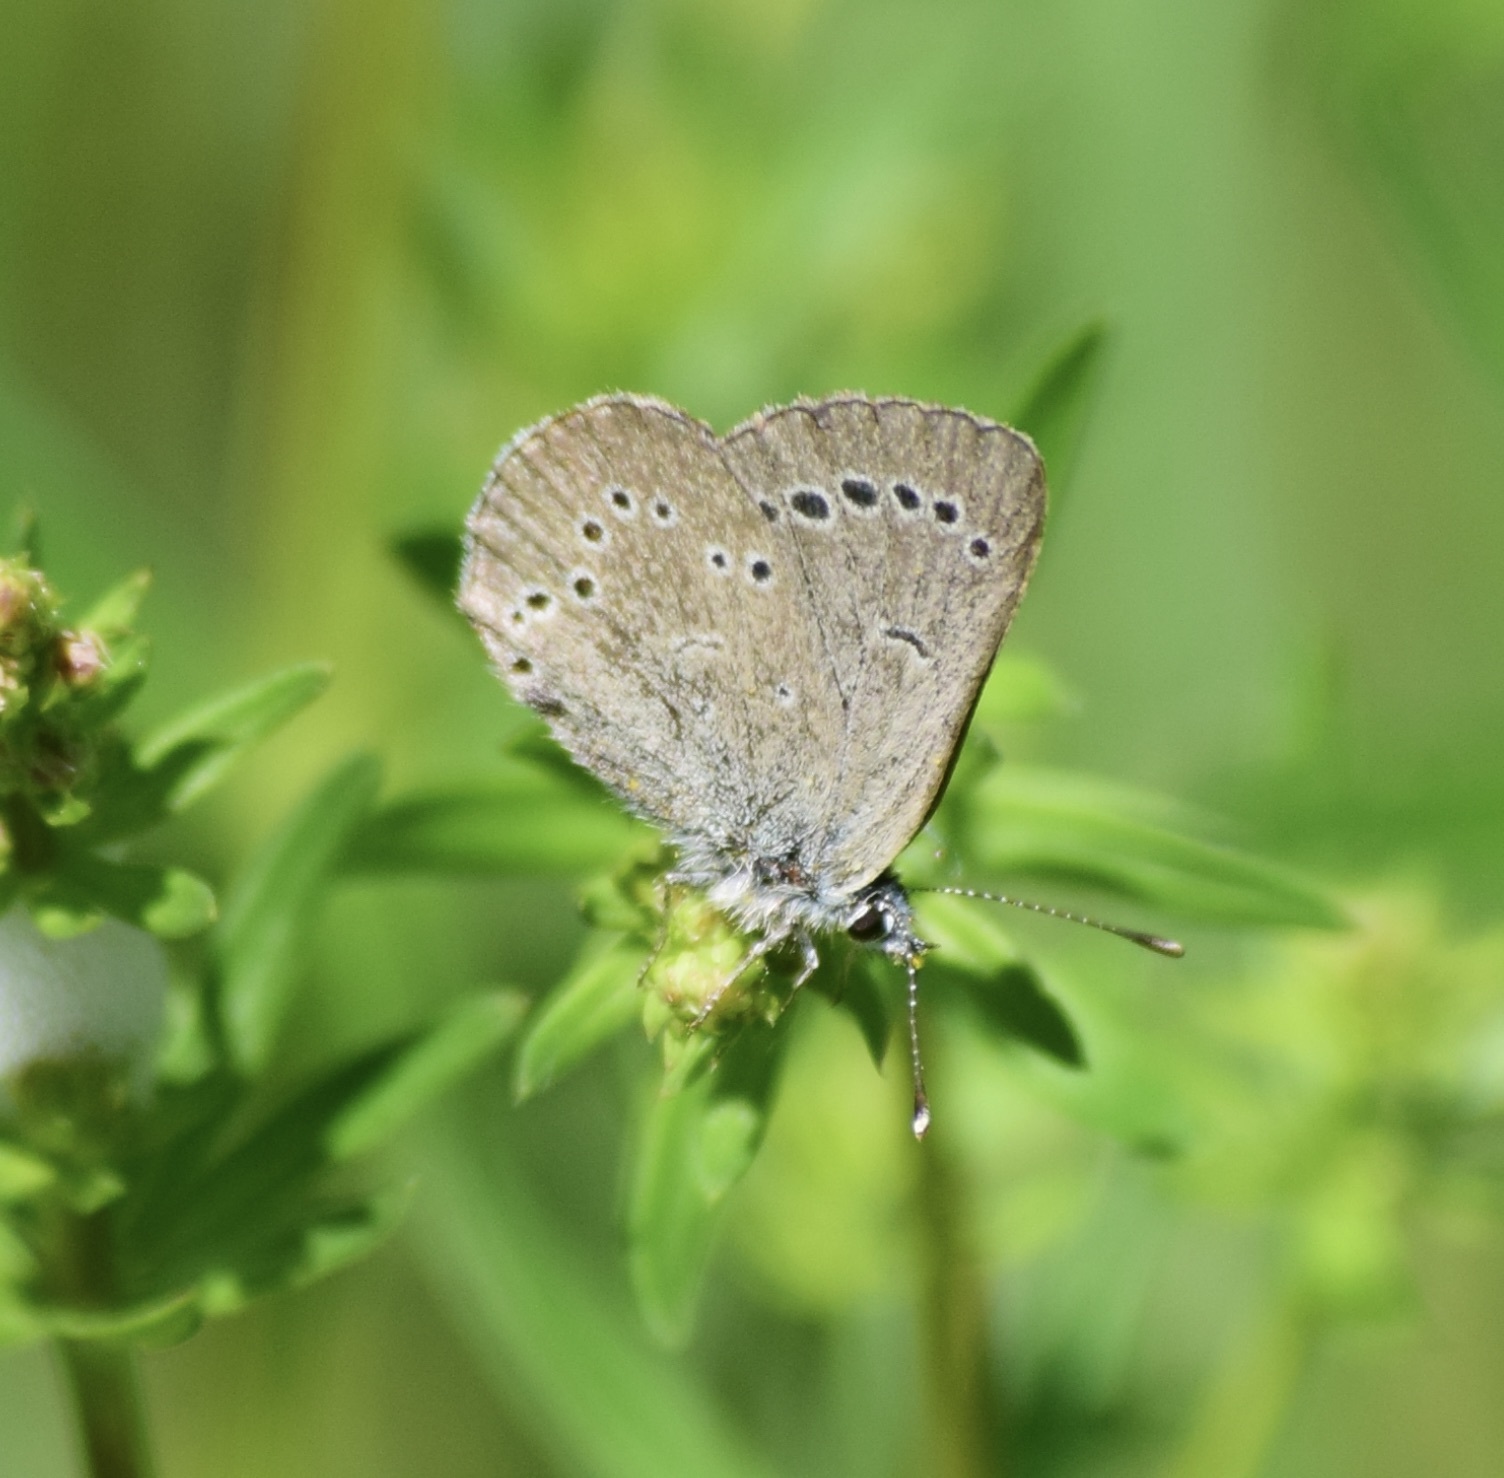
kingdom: Animalia
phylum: Arthropoda
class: Insecta
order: Lepidoptera
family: Lycaenidae
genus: Glaucopsyche
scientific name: Glaucopsyche lygdamus
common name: Silvery blue
